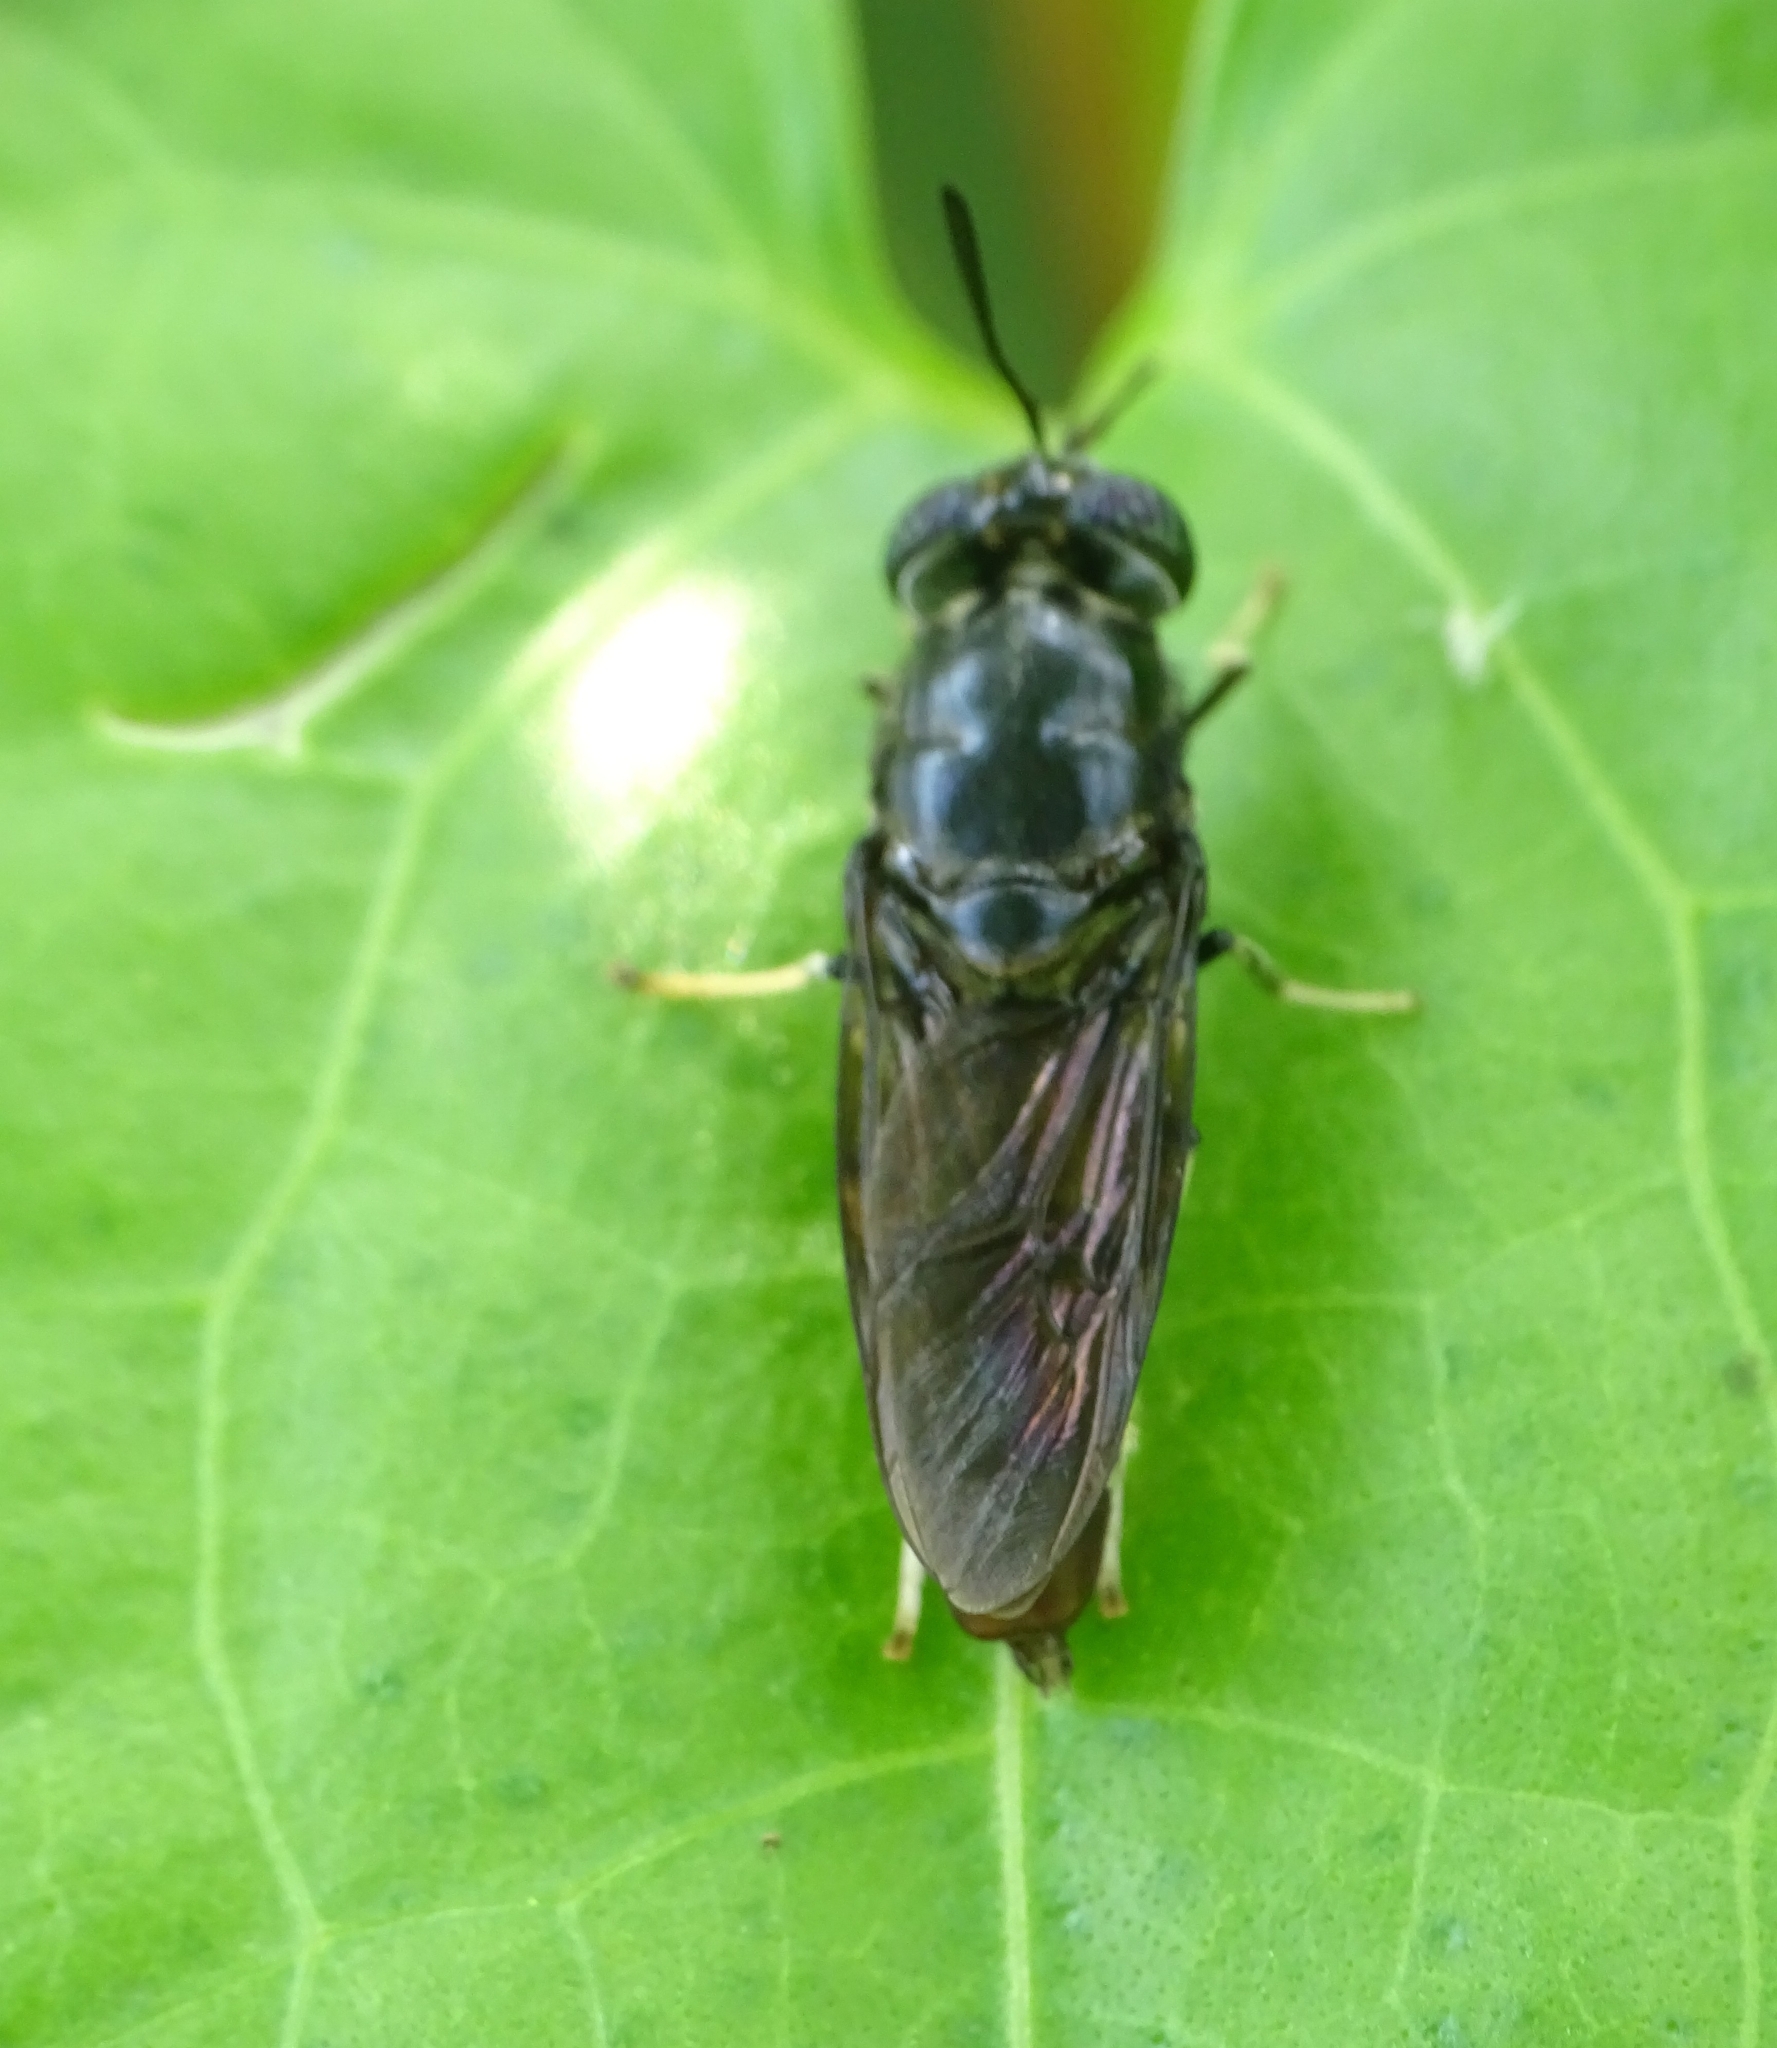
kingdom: Animalia
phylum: Arthropoda
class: Insecta
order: Diptera
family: Stratiomyidae
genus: Hermetia
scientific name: Hermetia illucens
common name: Black soldier fly
